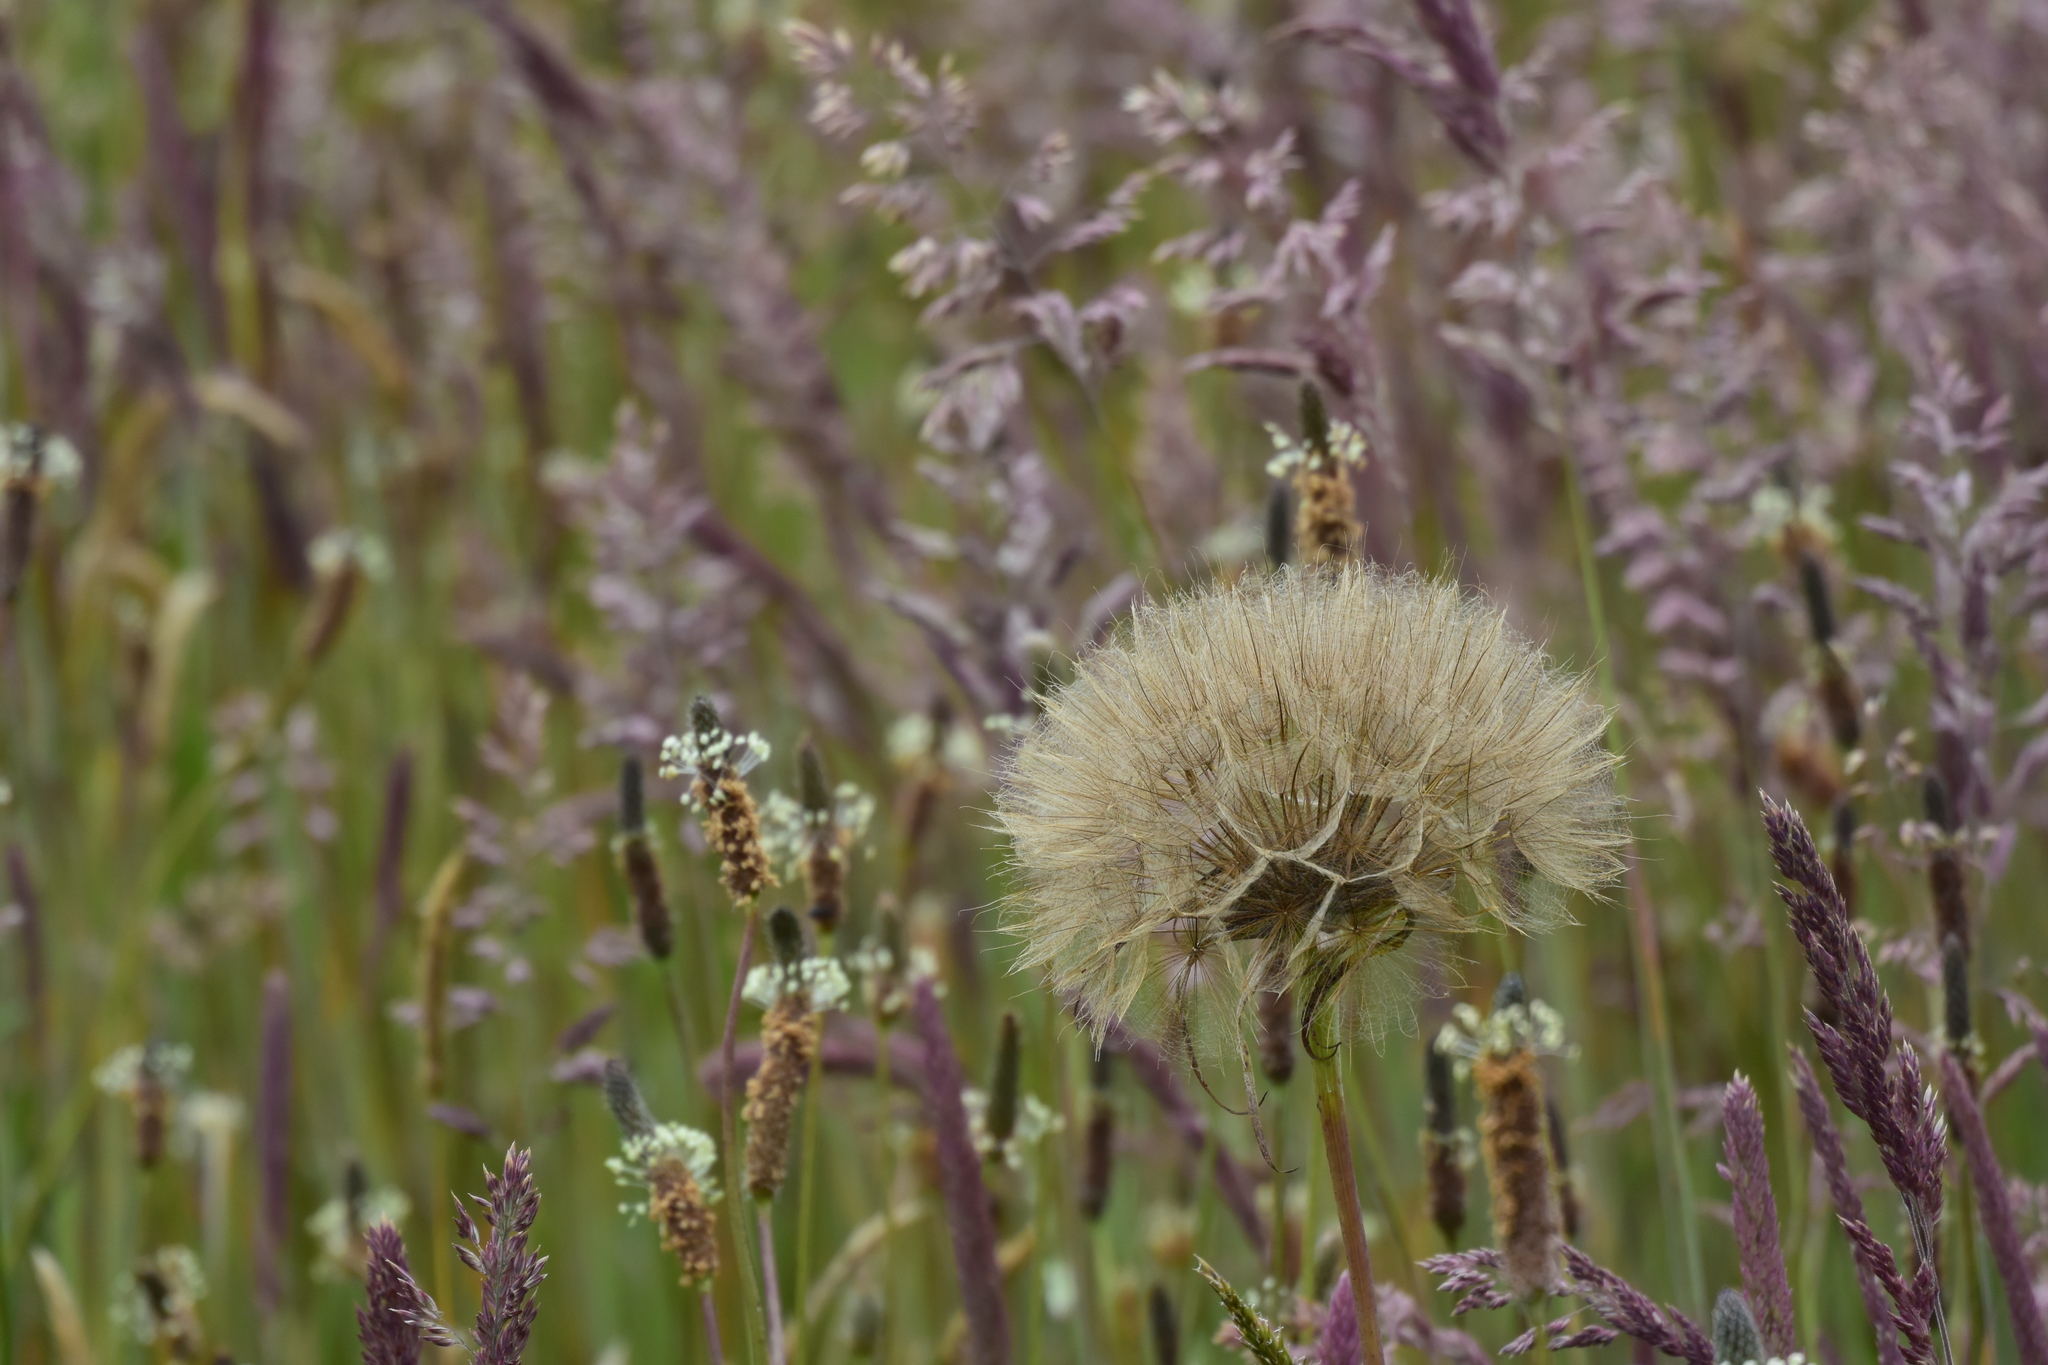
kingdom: Plantae
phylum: Tracheophyta
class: Magnoliopsida
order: Asterales
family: Asteraceae
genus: Tragopogon
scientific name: Tragopogon porrifolius
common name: Salsify
